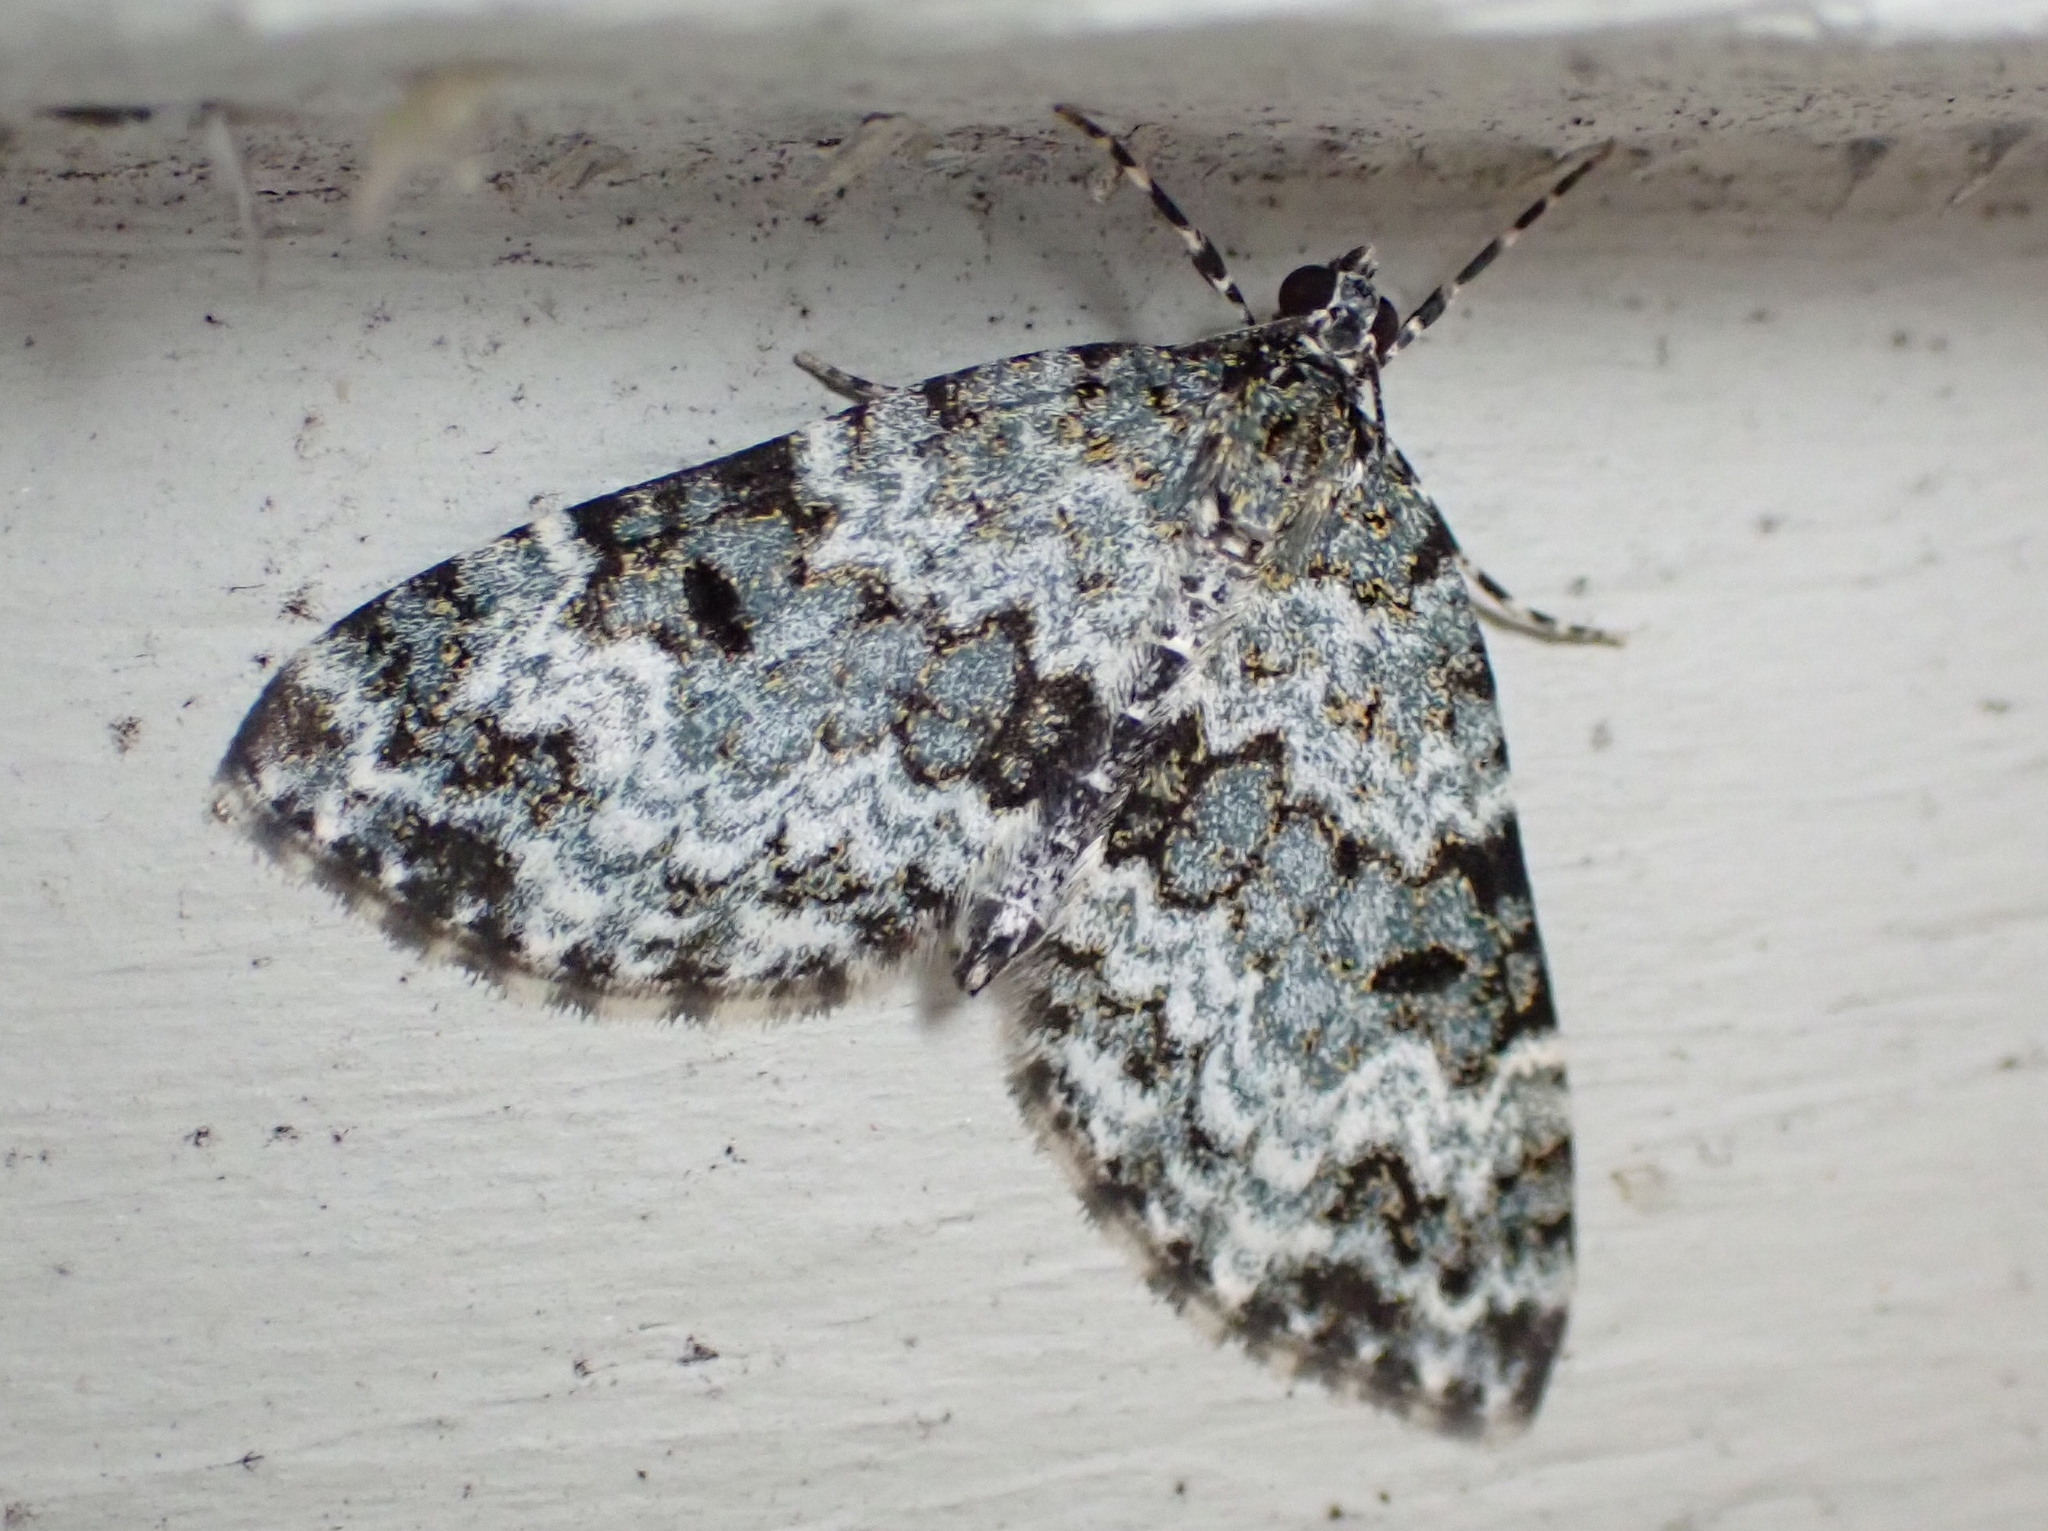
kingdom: Animalia
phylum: Arthropoda
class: Insecta
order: Lepidoptera
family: Geometridae
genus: Spargania
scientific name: Spargania magnoliata
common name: Double-banded carpet
